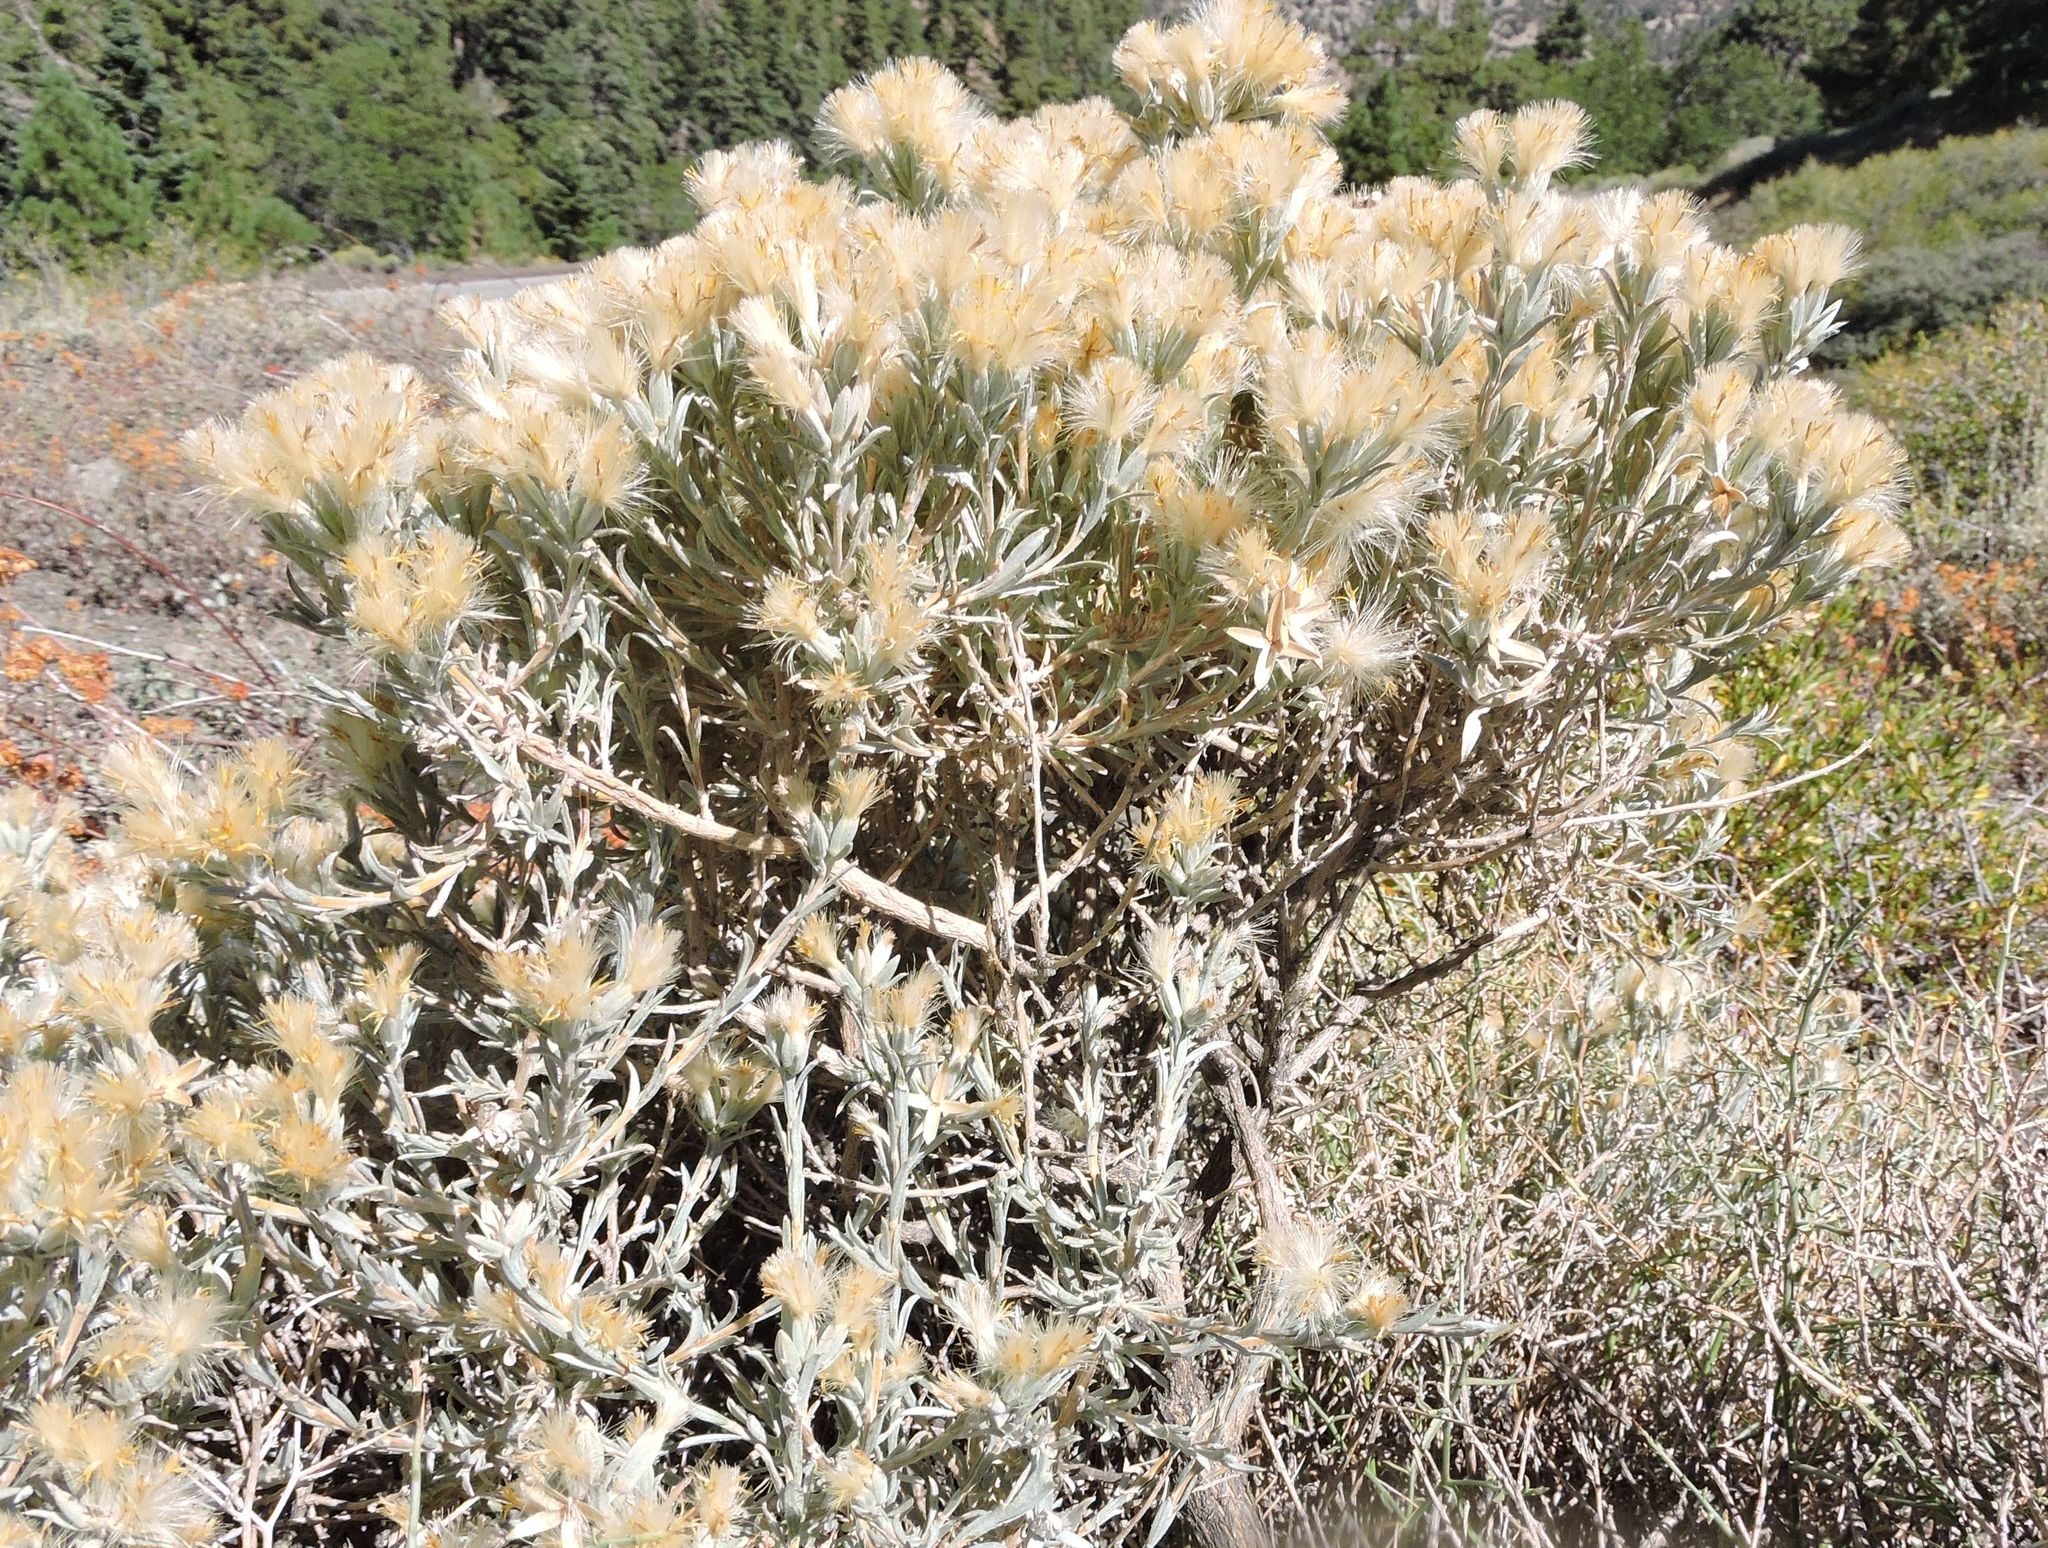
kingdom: Plantae
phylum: Tracheophyta
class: Magnoliopsida
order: Asterales
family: Asteraceae
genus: Tetradymia
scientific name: Tetradymia canescens
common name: Spineless horsebrush
